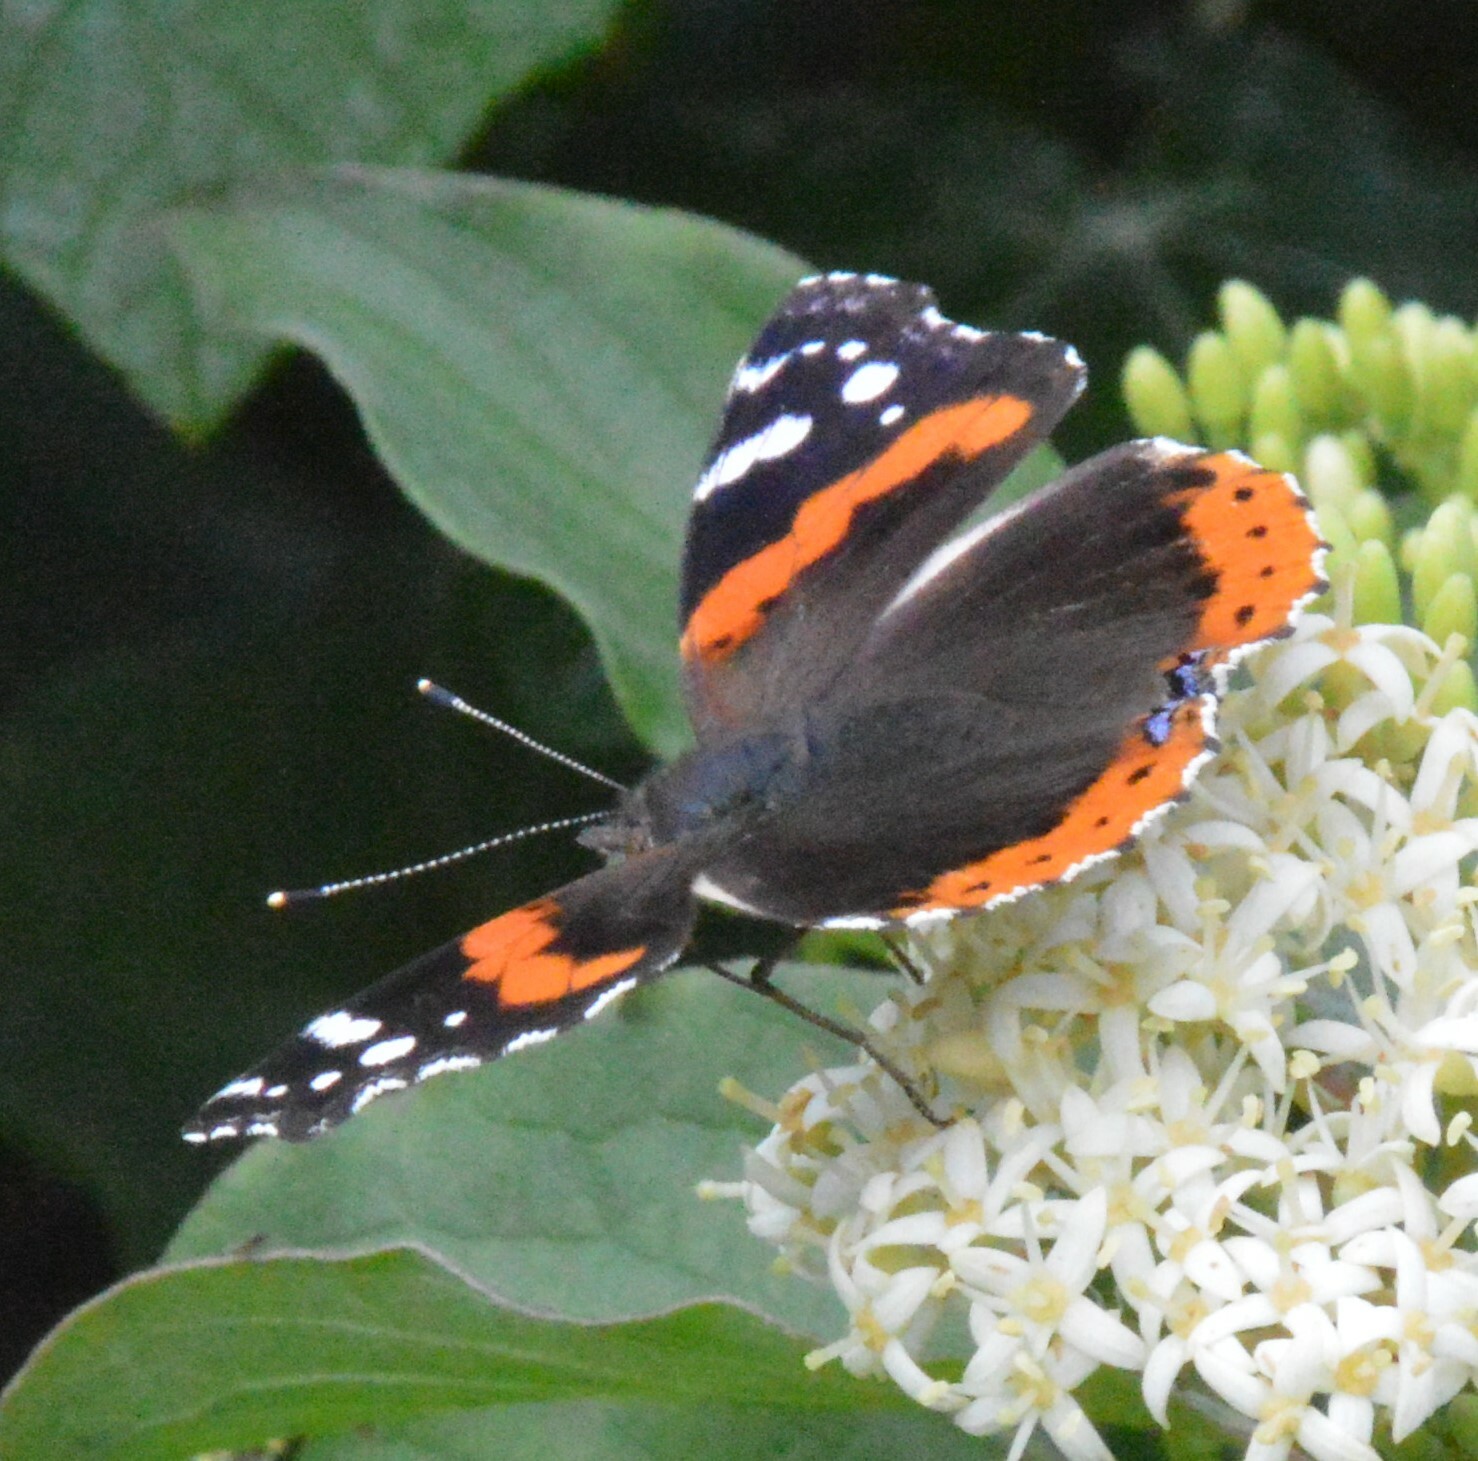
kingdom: Animalia
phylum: Arthropoda
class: Insecta
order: Lepidoptera
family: Nymphalidae
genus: Vanessa
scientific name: Vanessa atalanta
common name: Red admiral
